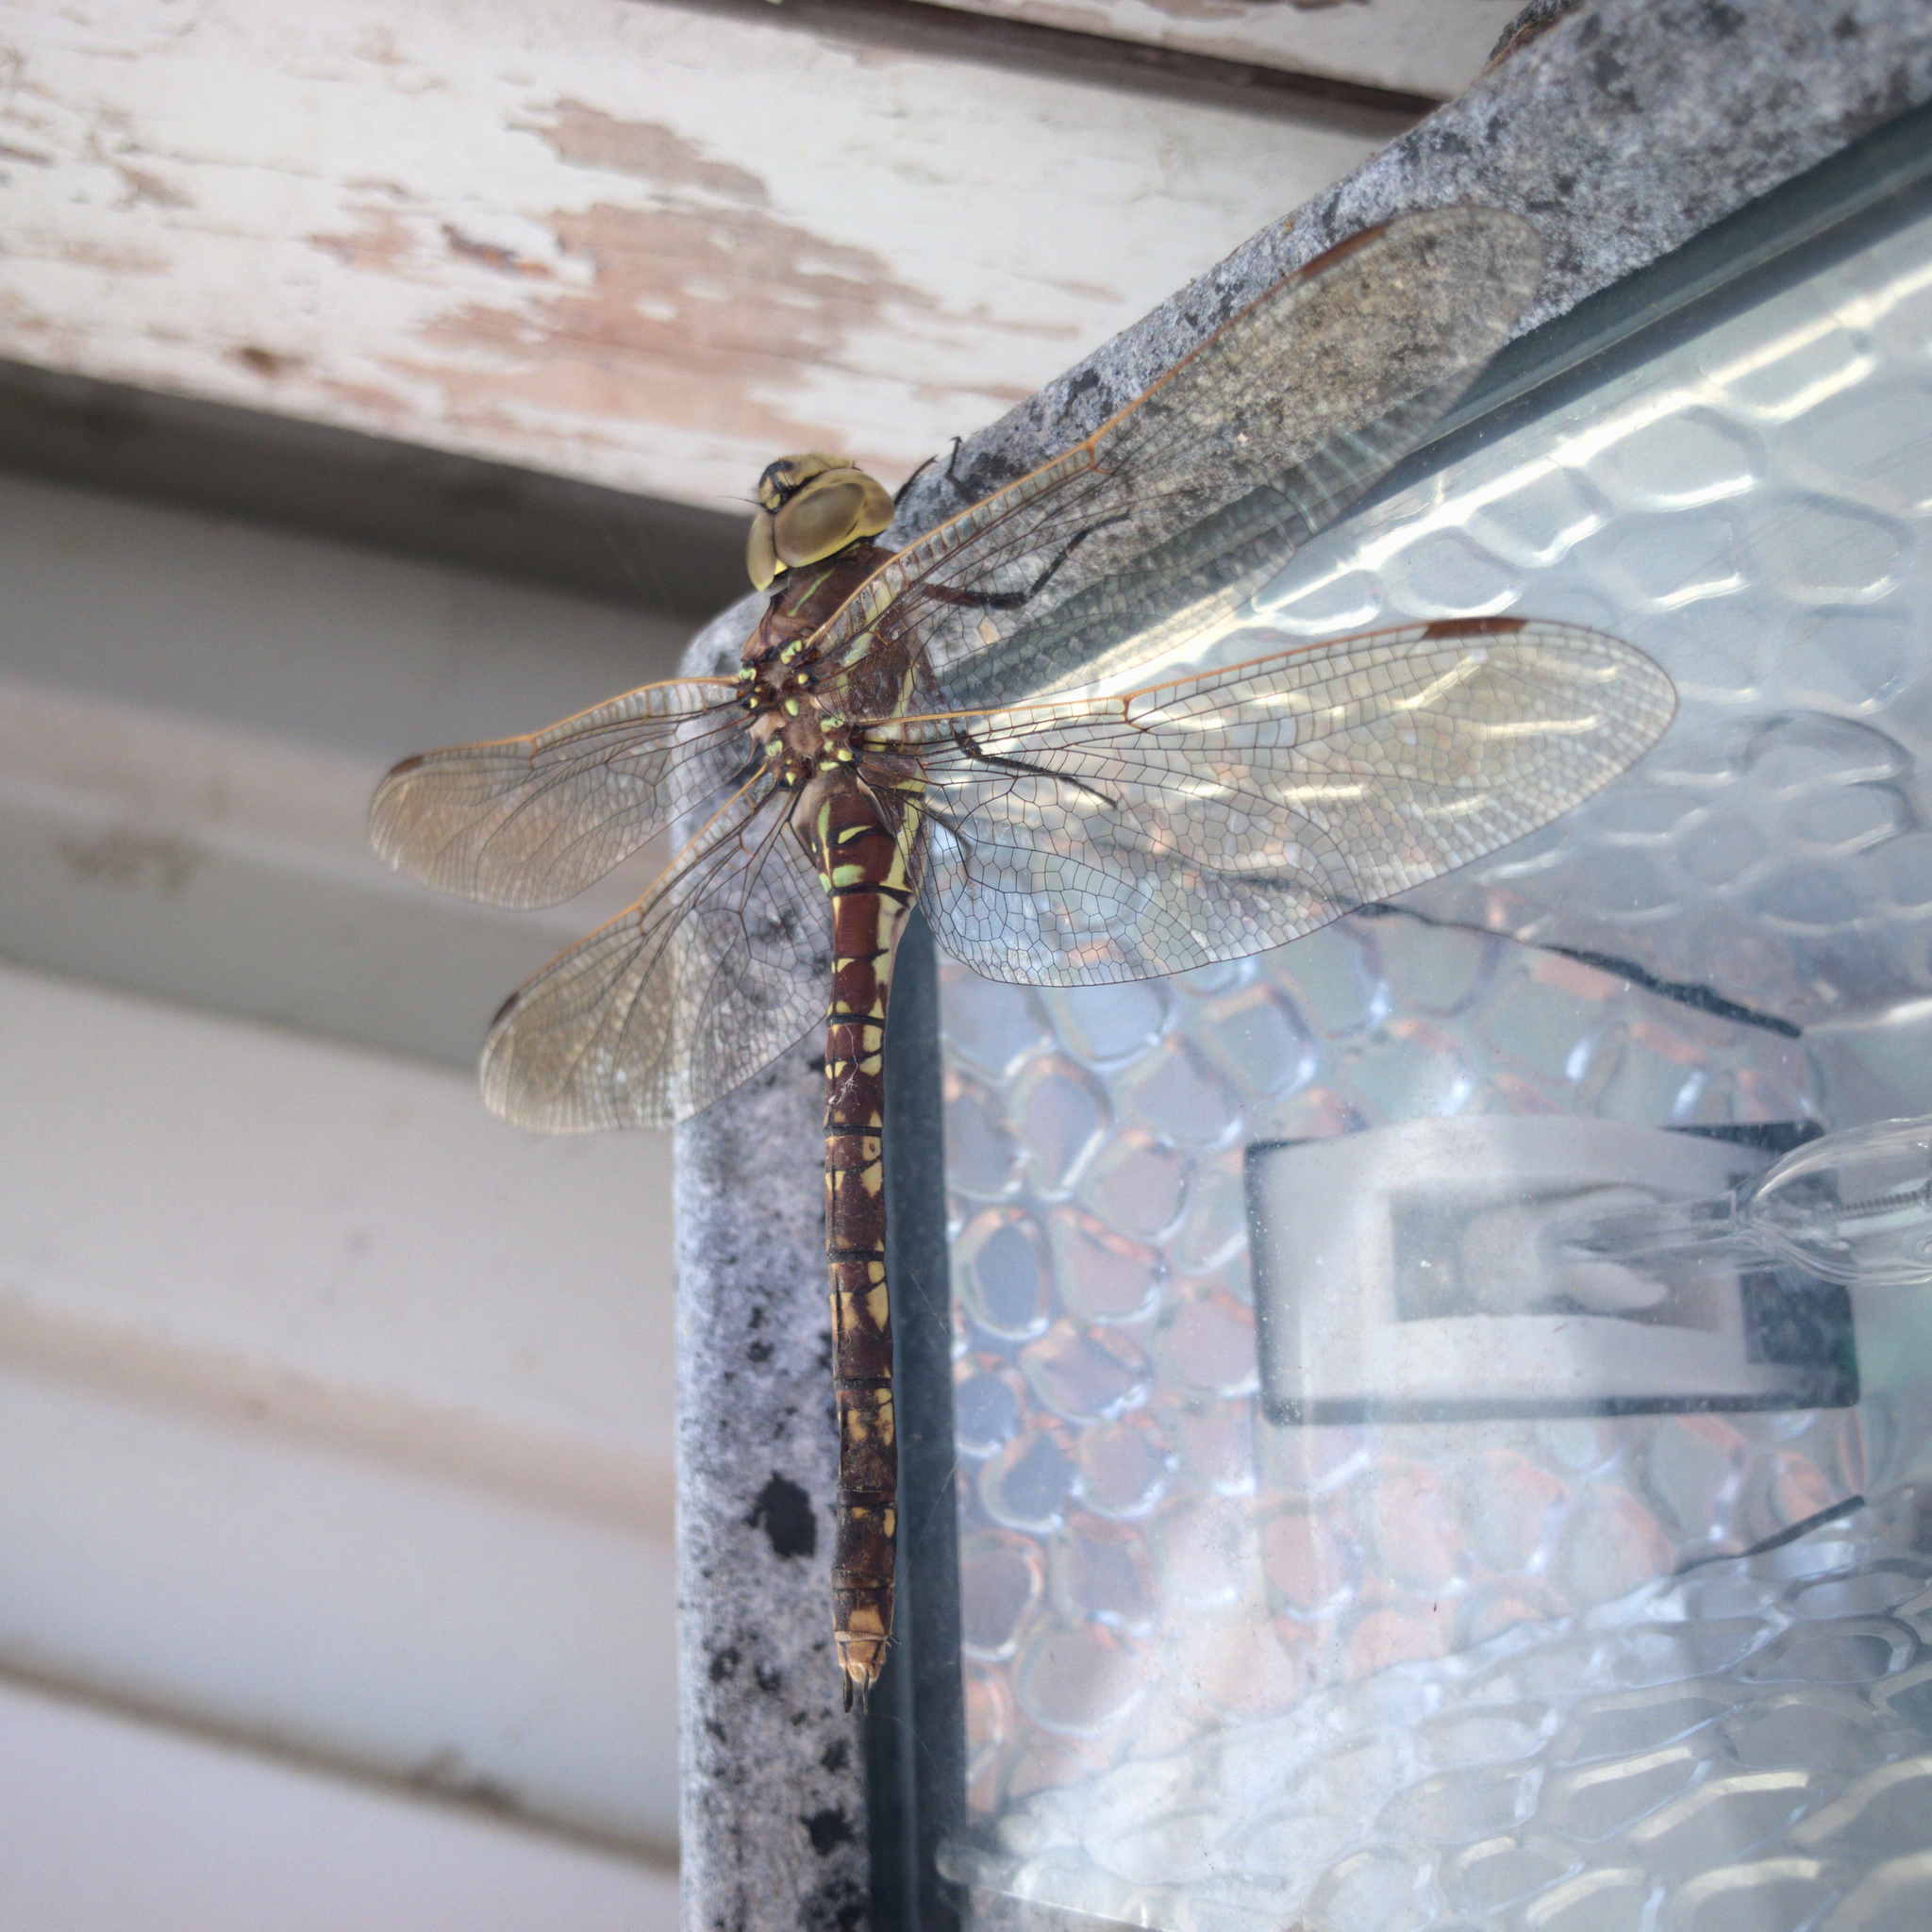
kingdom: Animalia
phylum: Arthropoda
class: Insecta
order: Odonata
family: Aeshnidae
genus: Aeshna
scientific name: Aeshna brevistyla
